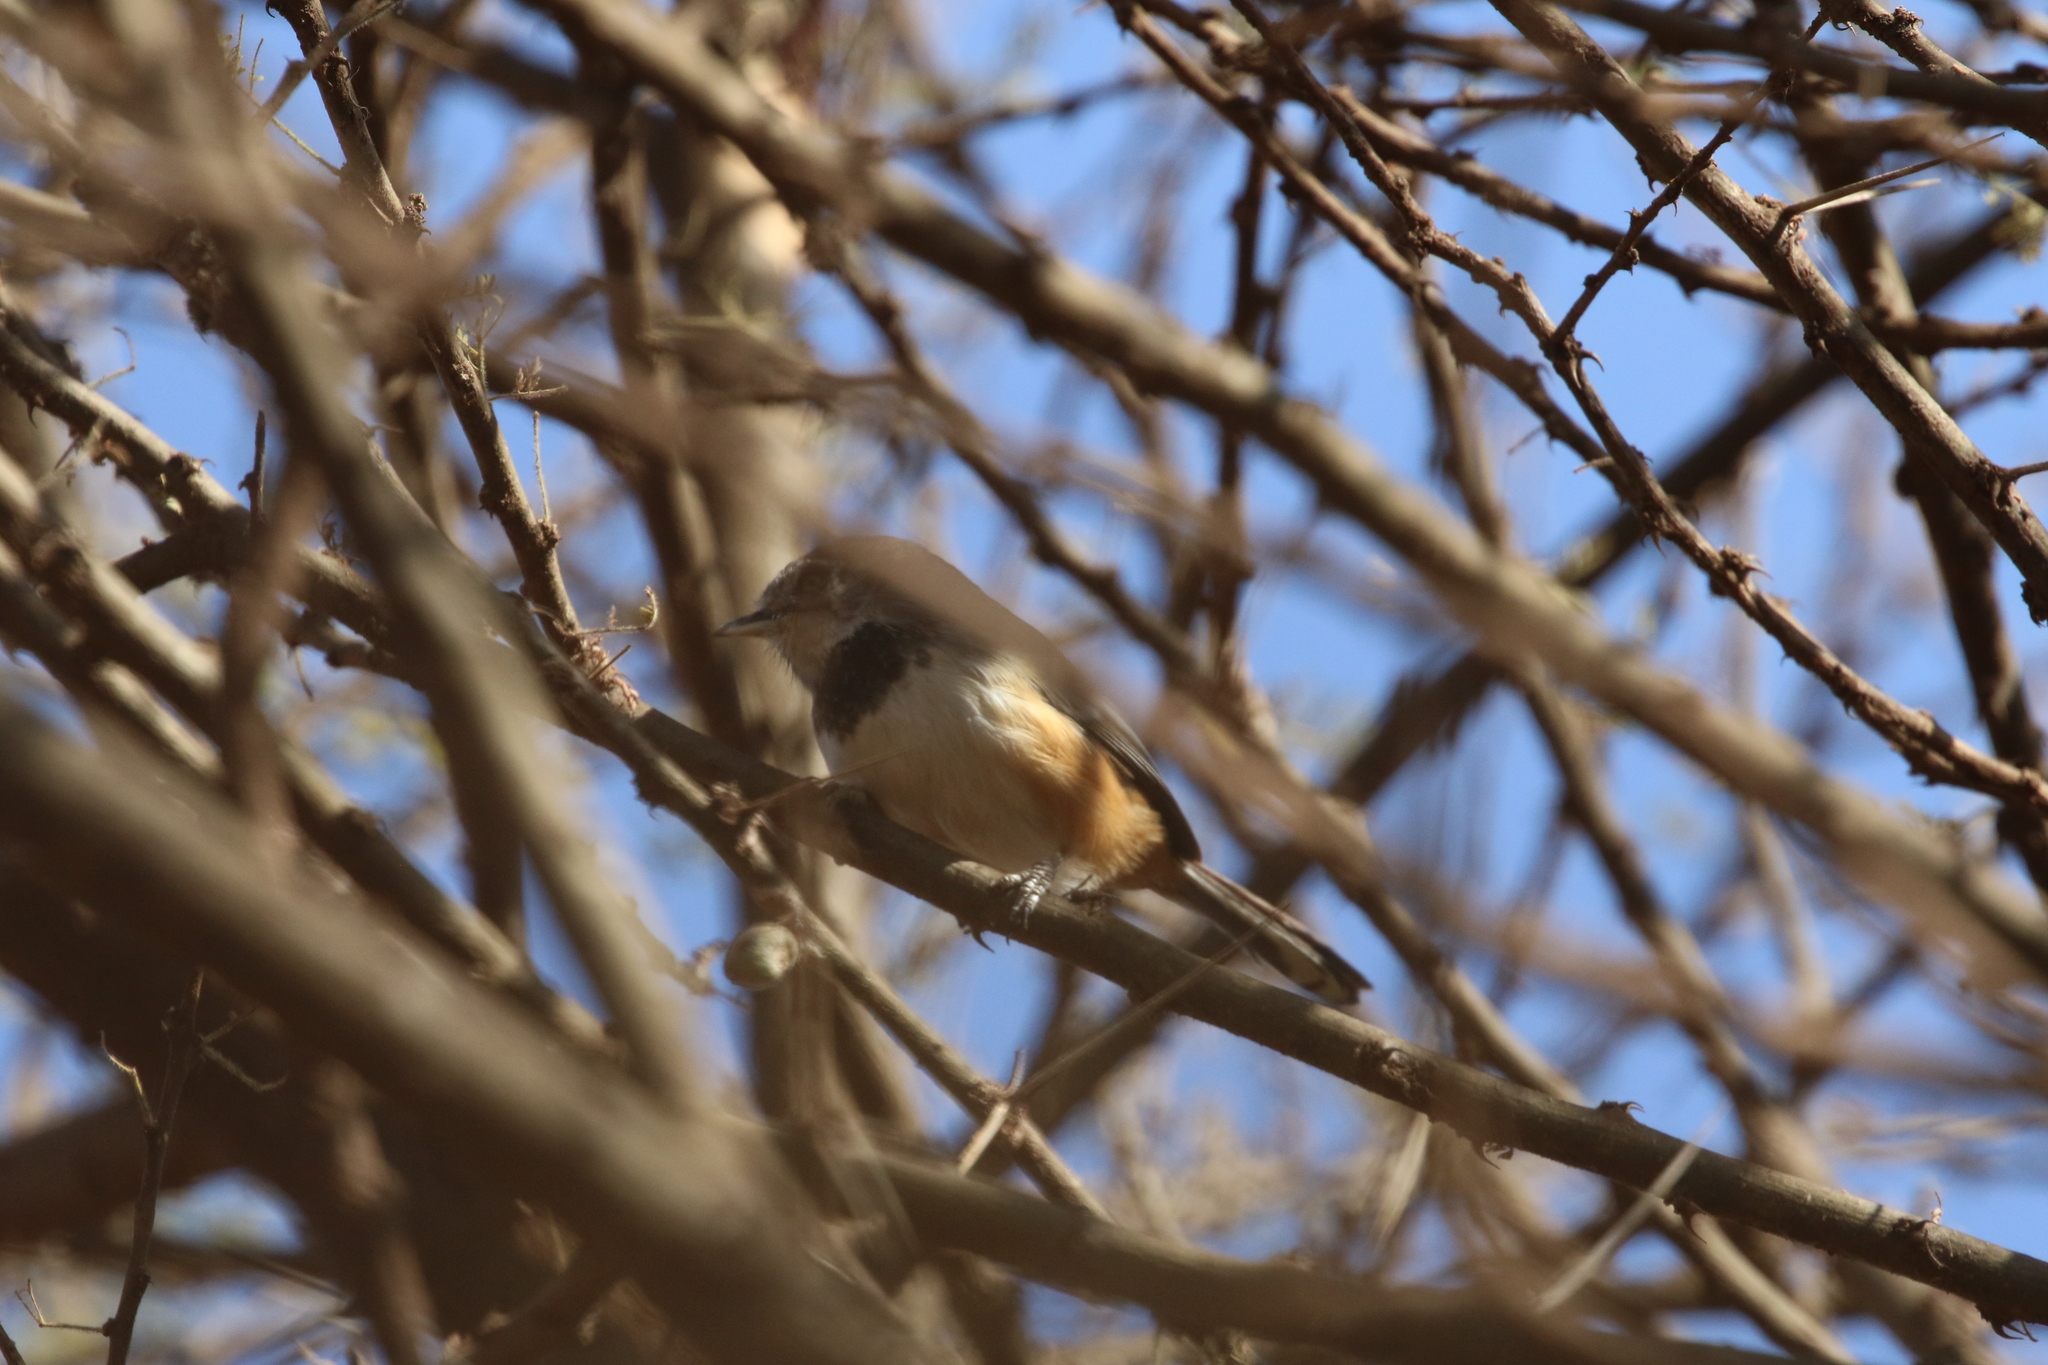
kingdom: Animalia
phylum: Chordata
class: Aves
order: Passeriformes
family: Sylviidae
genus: Sylvia
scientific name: Sylvia boehmi
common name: Banded parisoma
